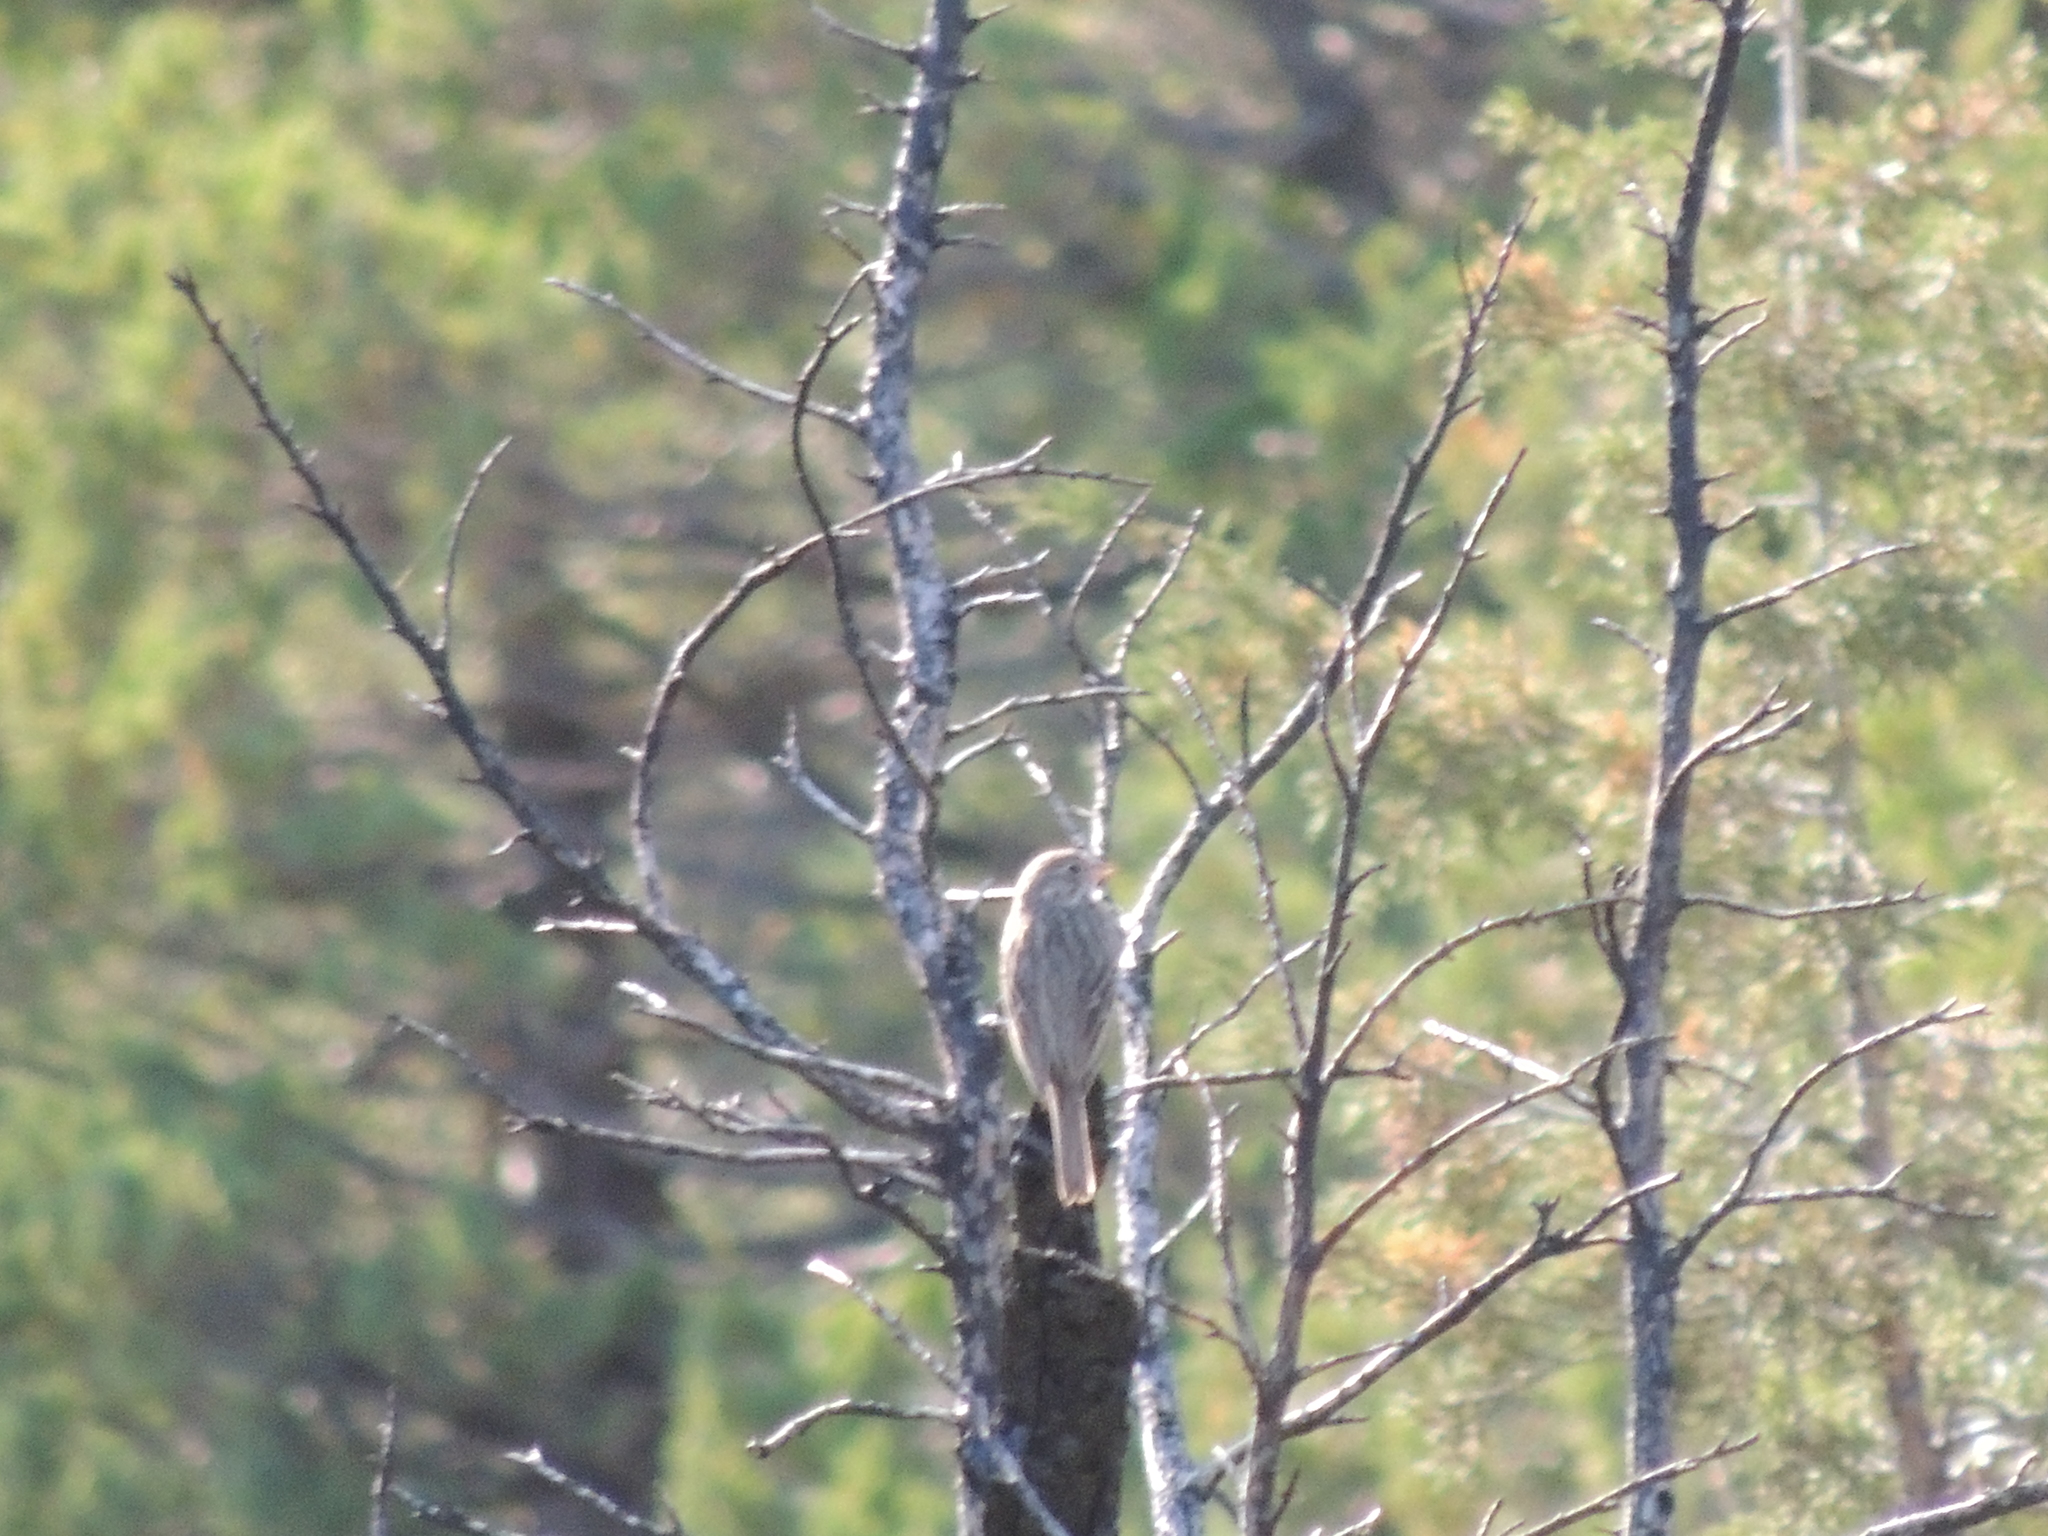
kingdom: Animalia
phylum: Chordata
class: Aves
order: Passeriformes
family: Passerellidae
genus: Pooecetes
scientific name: Pooecetes gramineus
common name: Vesper sparrow
